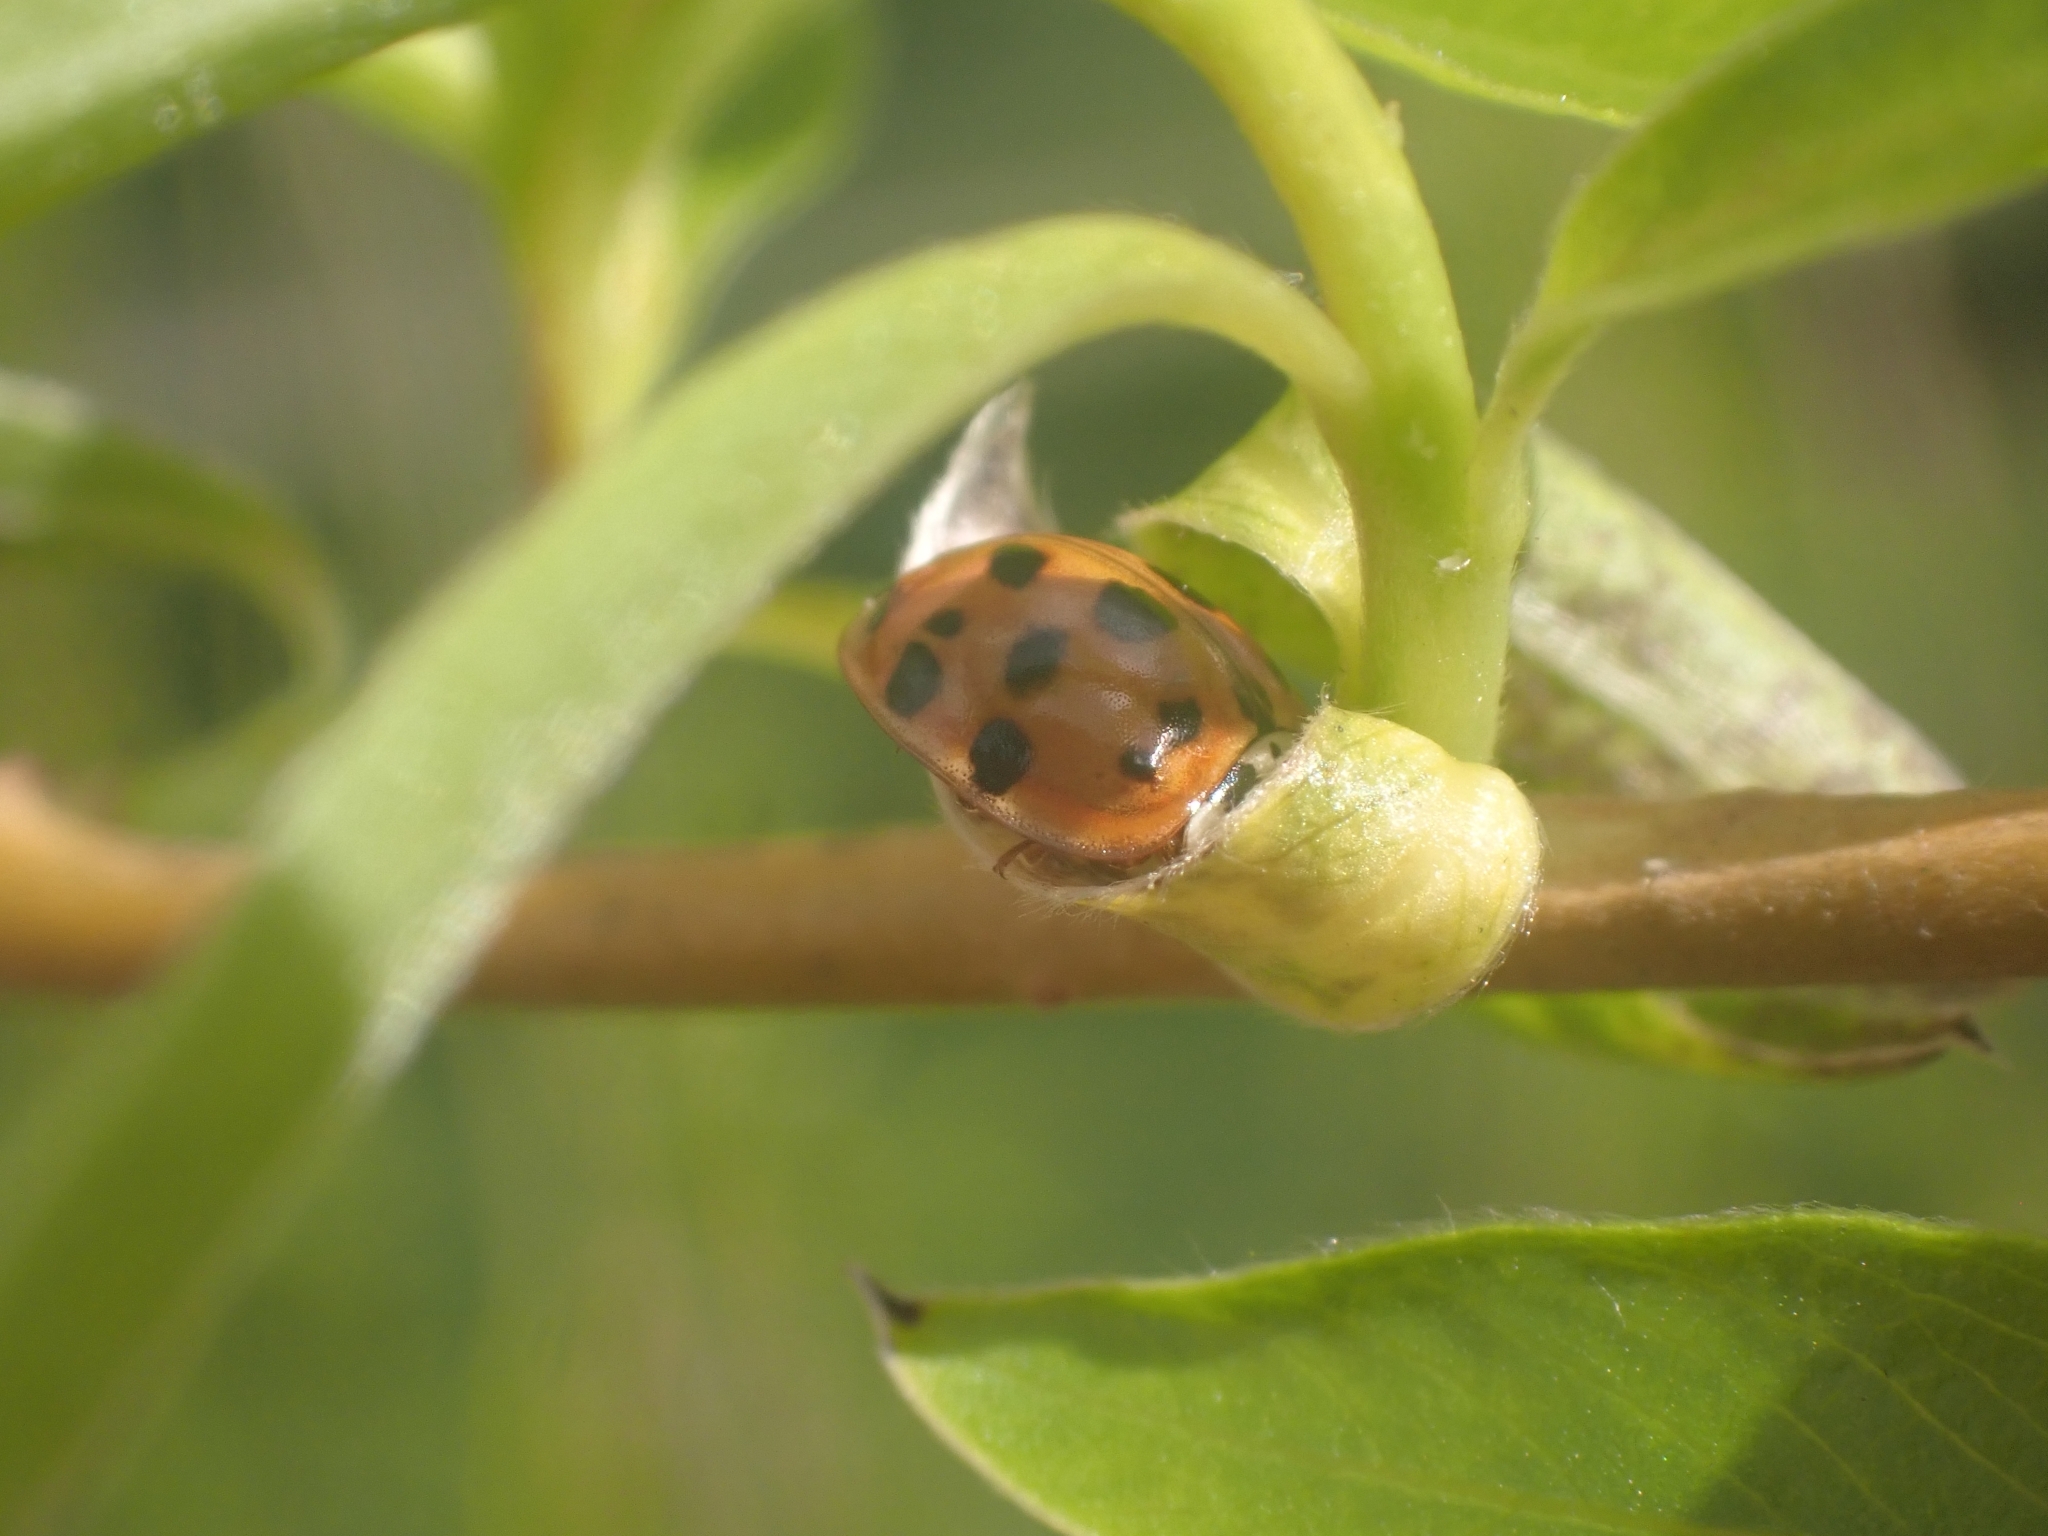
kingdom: Animalia
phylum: Arthropoda
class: Insecta
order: Coleoptera
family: Coccinellidae
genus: Harmonia
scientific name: Harmonia axyridis
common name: Harlequin ladybird
